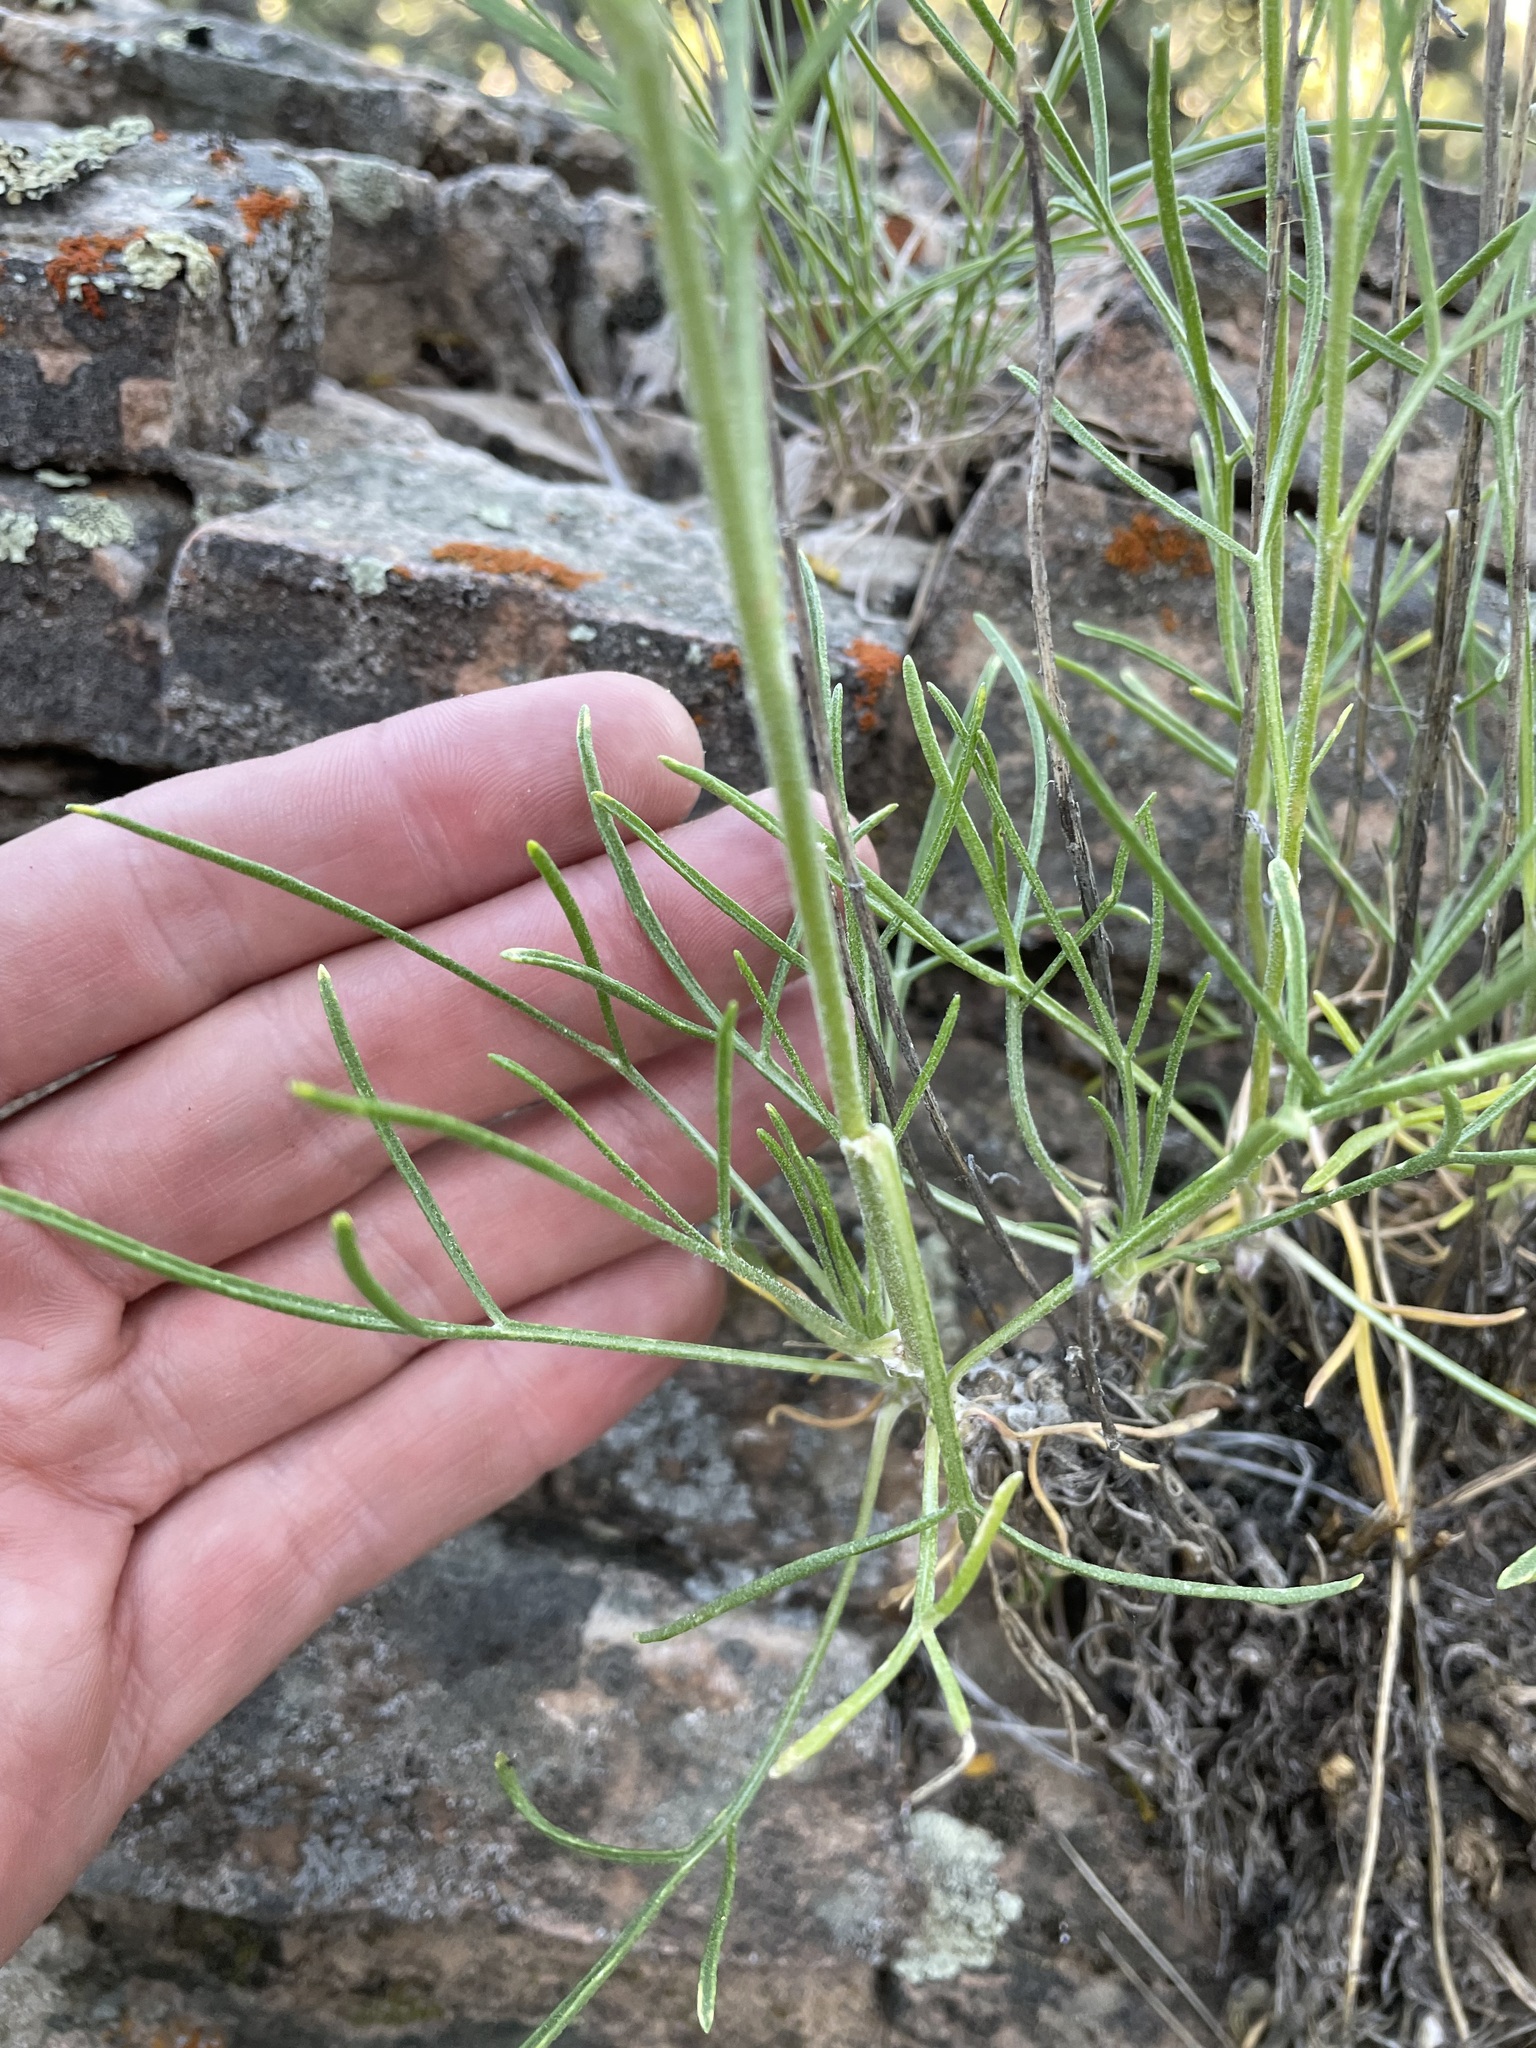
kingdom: Plantae
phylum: Tracheophyta
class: Magnoliopsida
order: Asterales
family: Asteraceae
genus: Hymenoxys
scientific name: Hymenoxys richardsonii
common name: Pingue rubberweed
